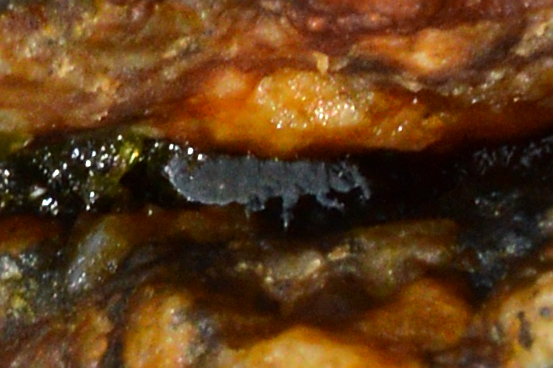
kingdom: Animalia
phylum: Arthropoda
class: Collembola
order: Poduromorpha
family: Neanuridae
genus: Anurida
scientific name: Anurida maritima
